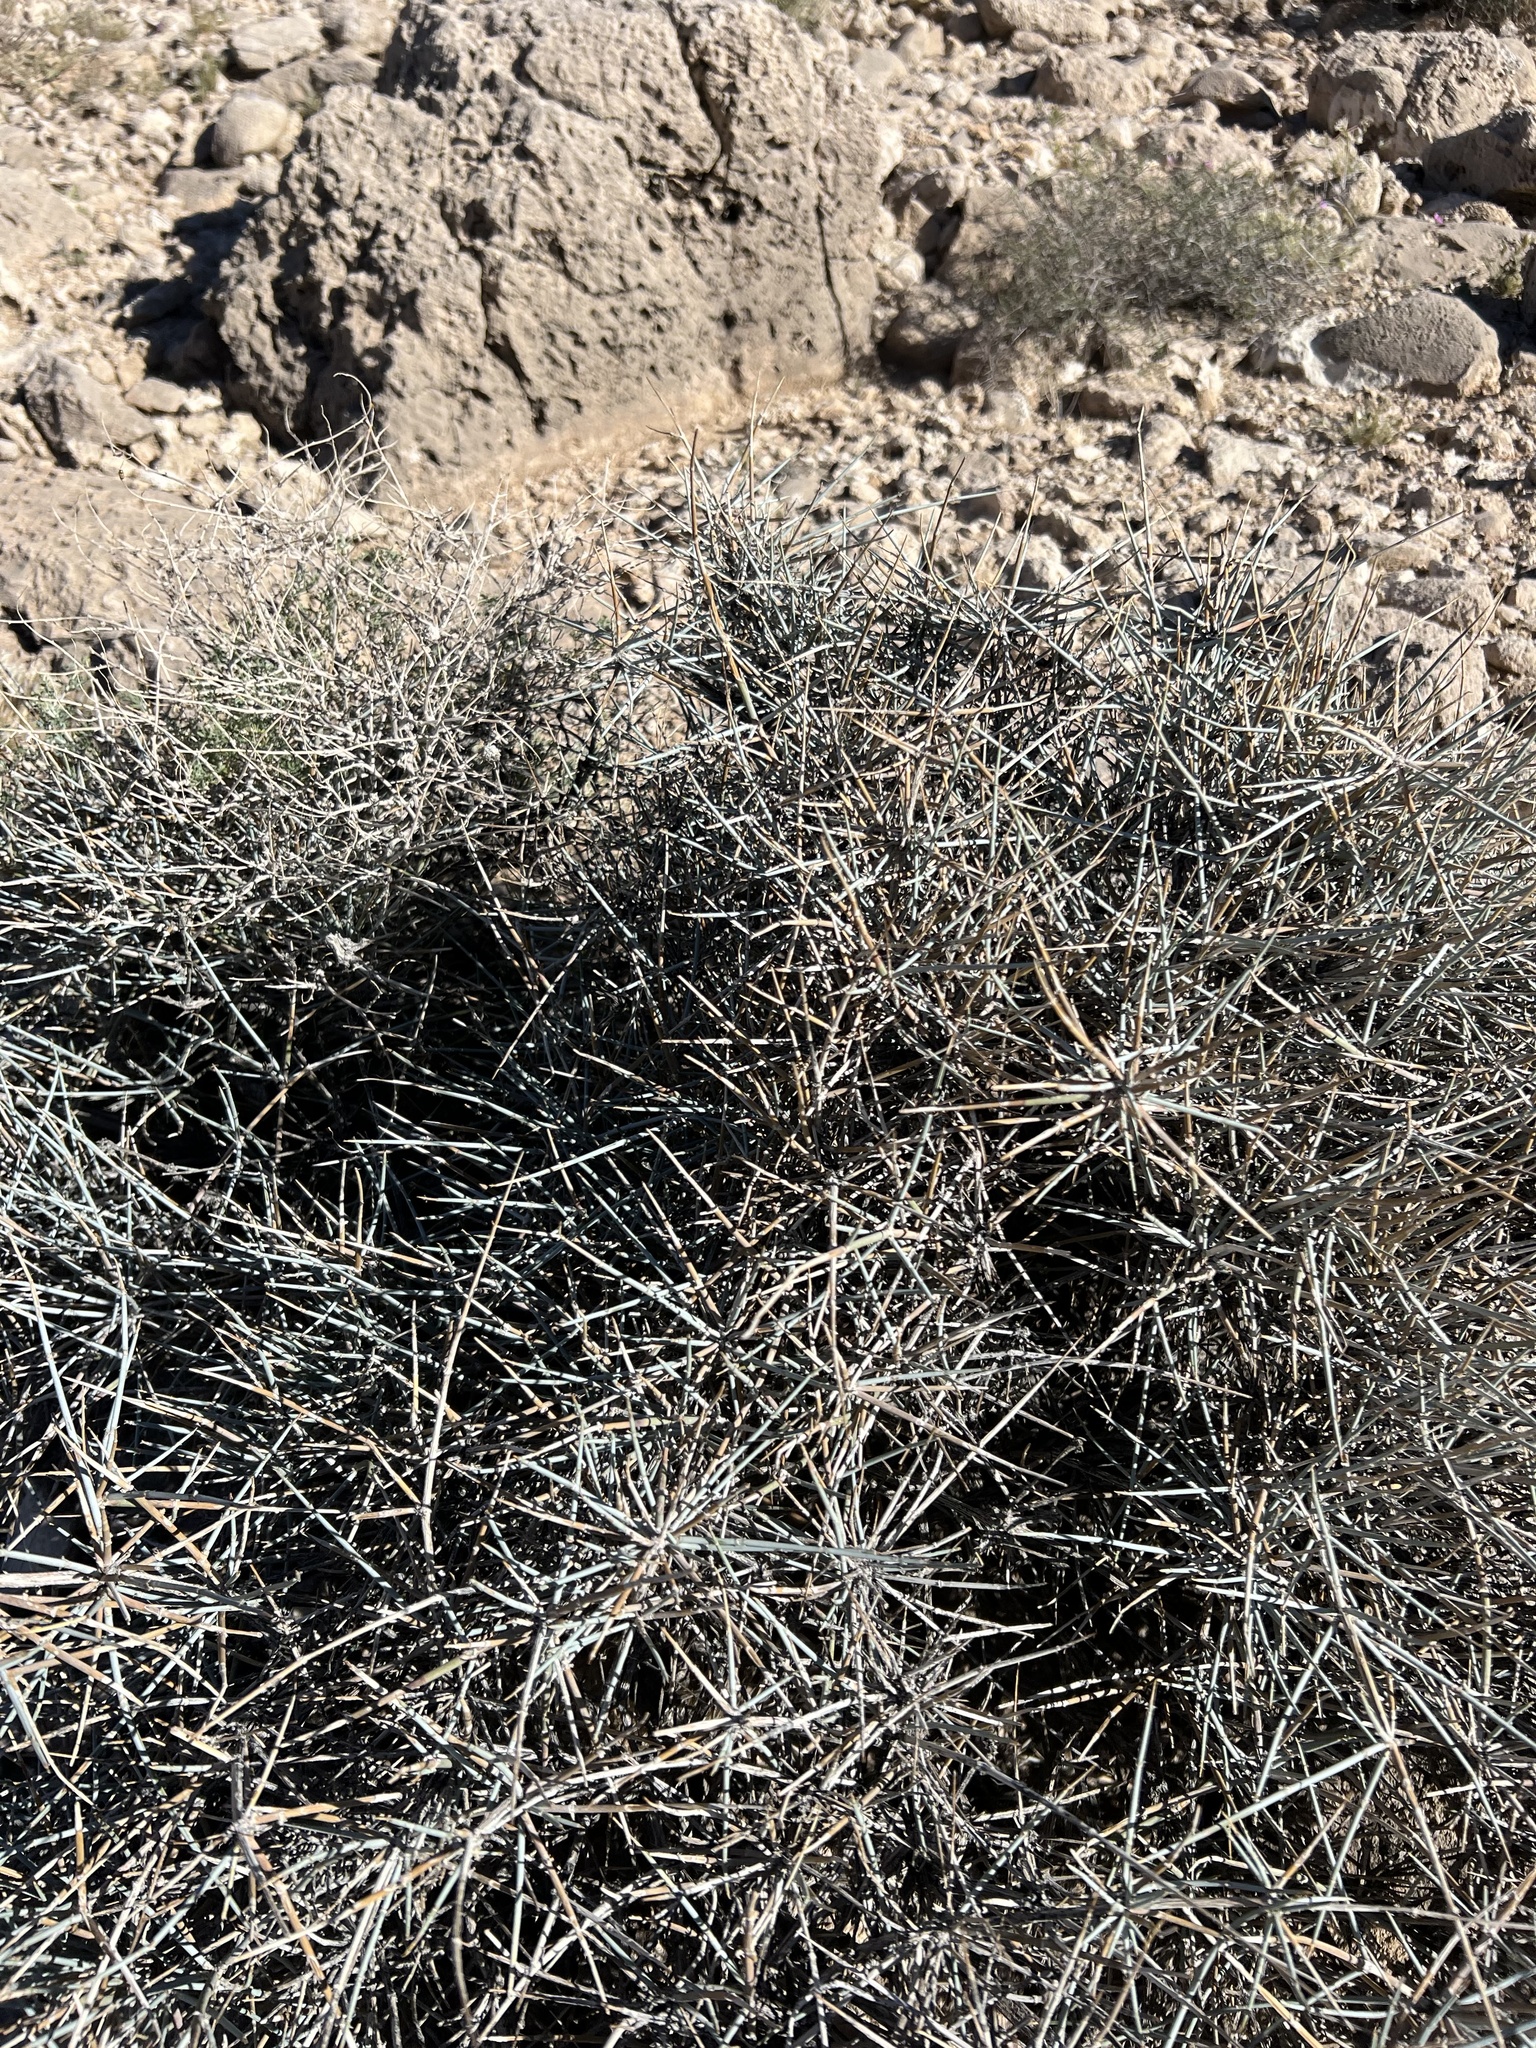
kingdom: Plantae
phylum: Tracheophyta
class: Gnetopsida
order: Ephedrales
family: Ephedraceae
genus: Ephedra
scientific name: Ephedra nevadensis
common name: Gray ephedra
